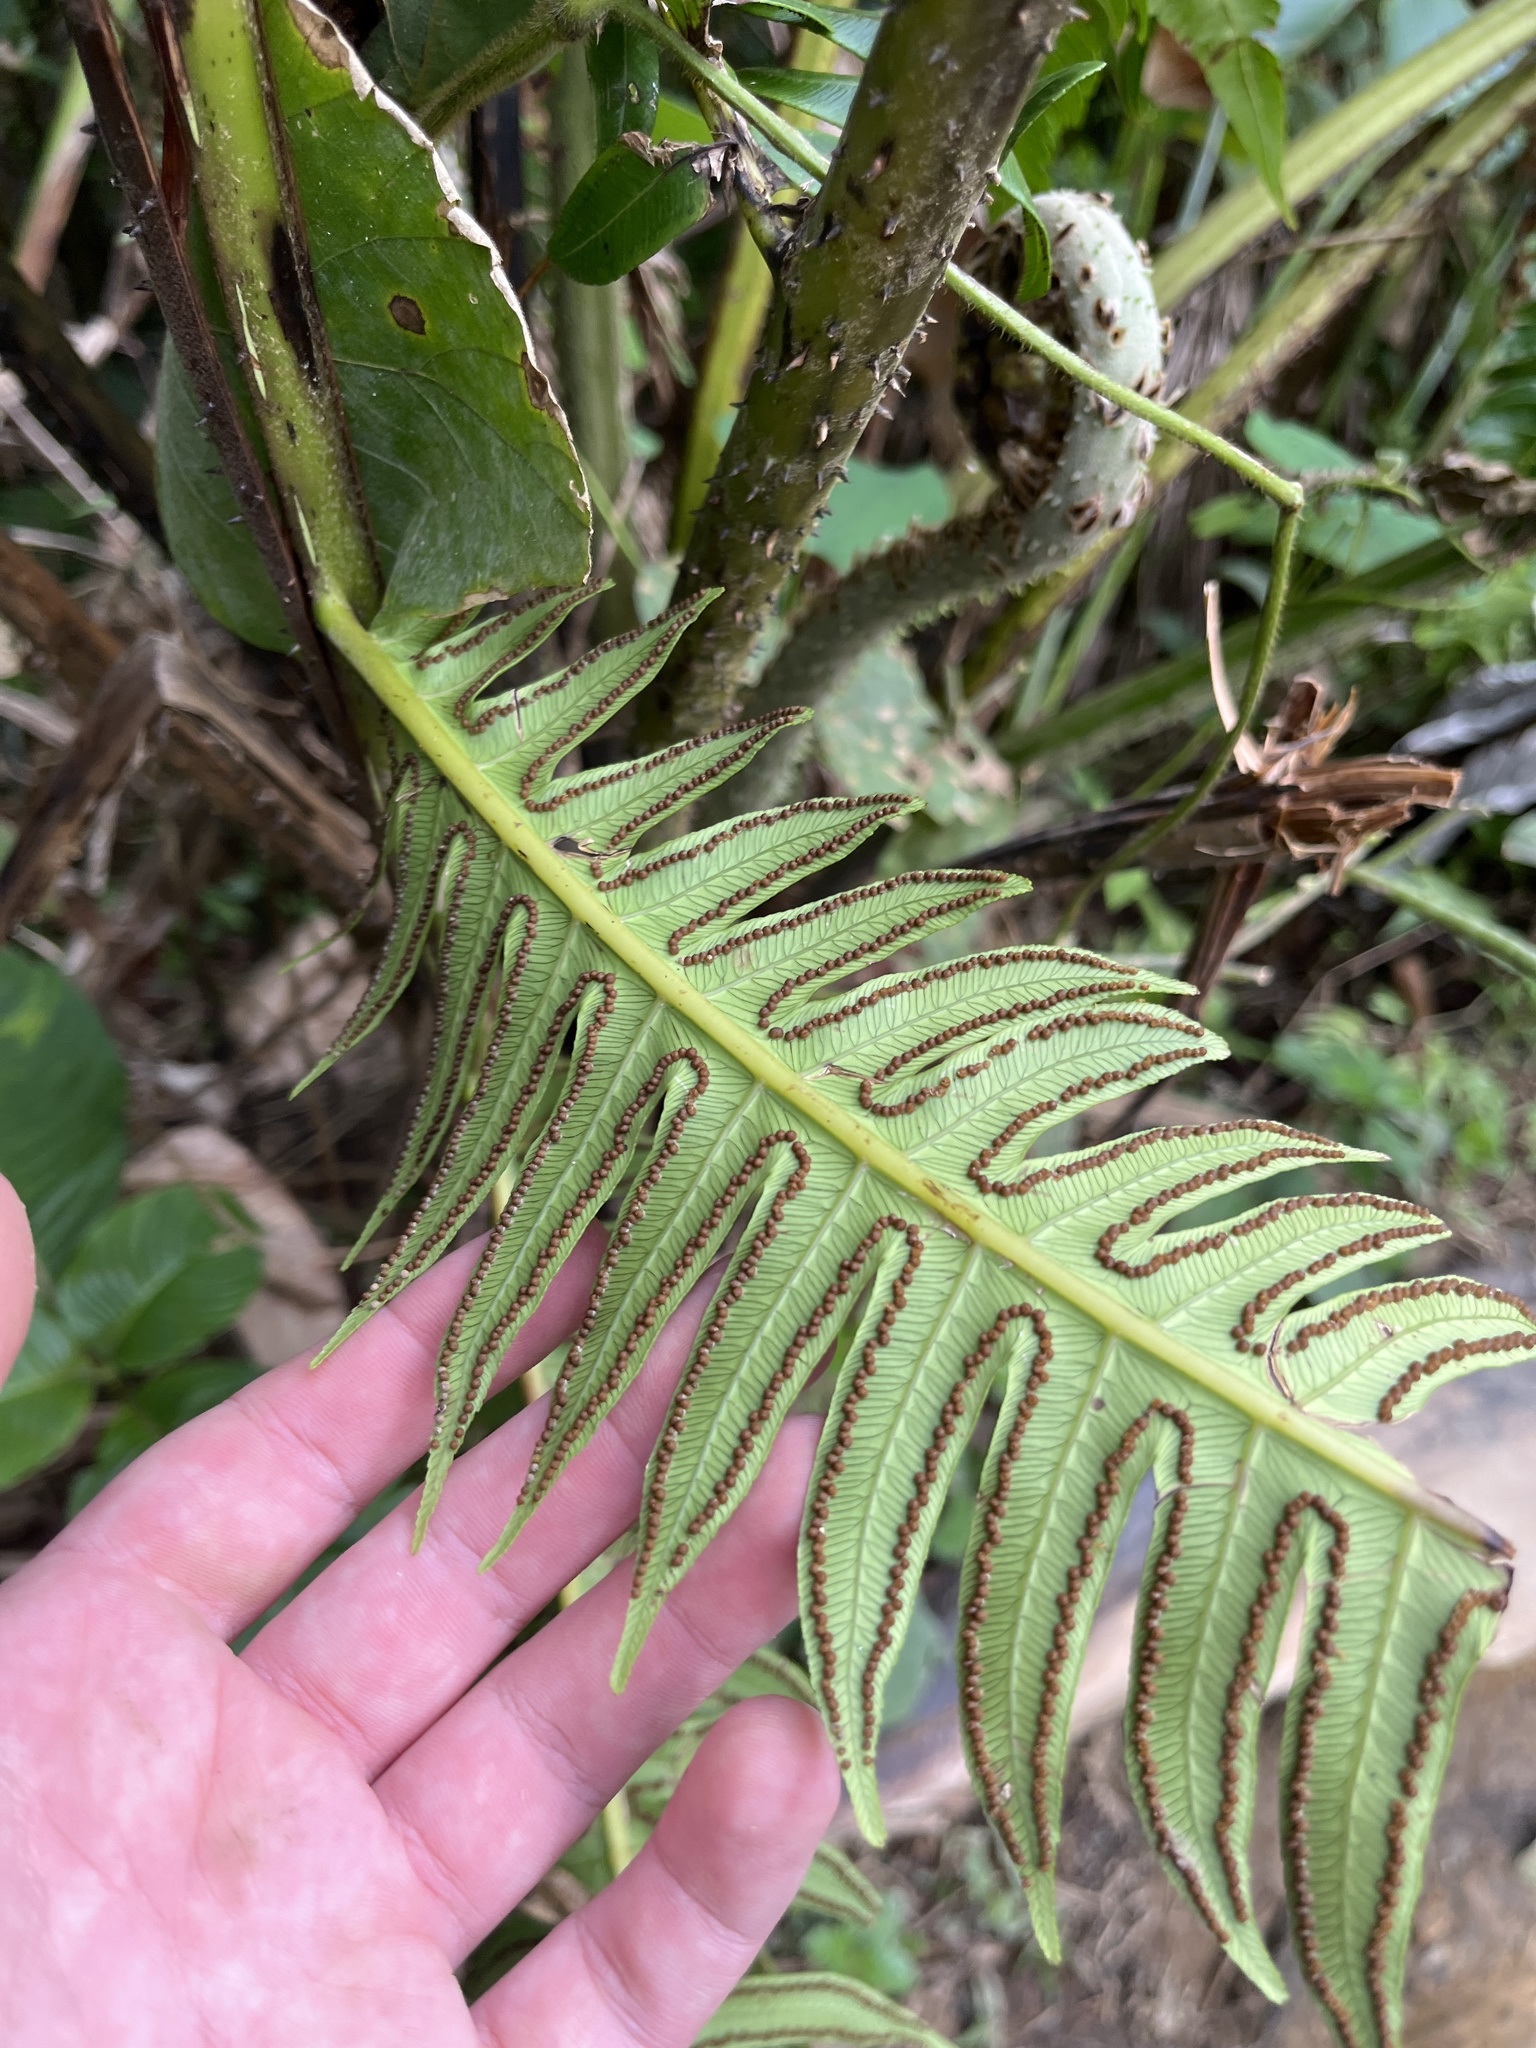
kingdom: Plantae
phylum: Tracheophyta
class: Polypodiopsida
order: Cyatheales
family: Cyatheaceae
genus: Cyathea
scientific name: Cyathea horrida
